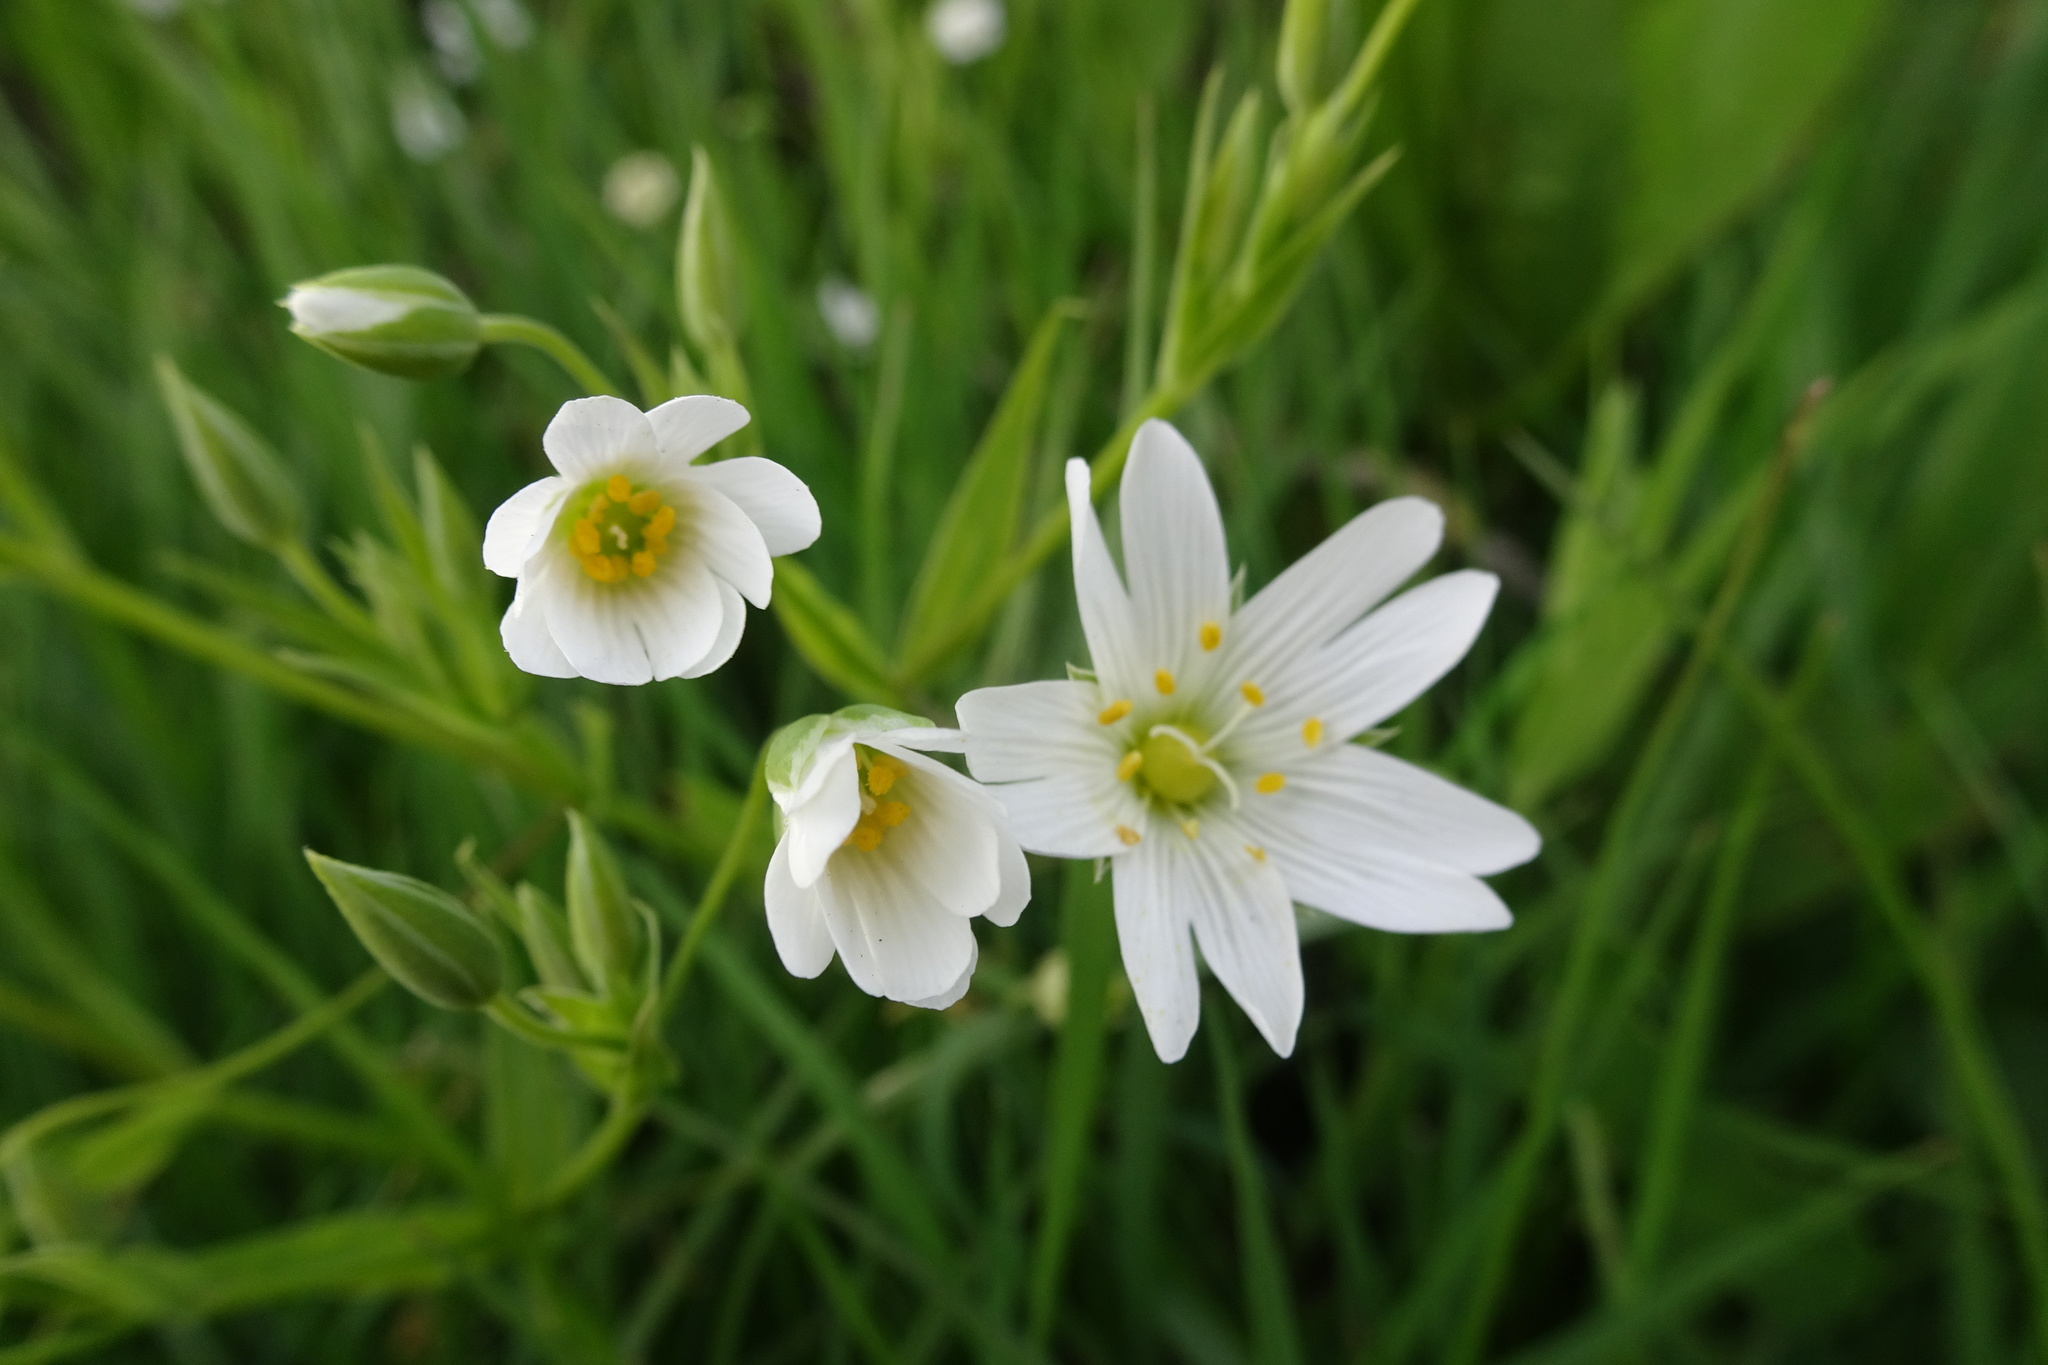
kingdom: Plantae
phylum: Tracheophyta
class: Magnoliopsida
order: Caryophyllales
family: Caryophyllaceae
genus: Rabelera
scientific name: Rabelera holostea
